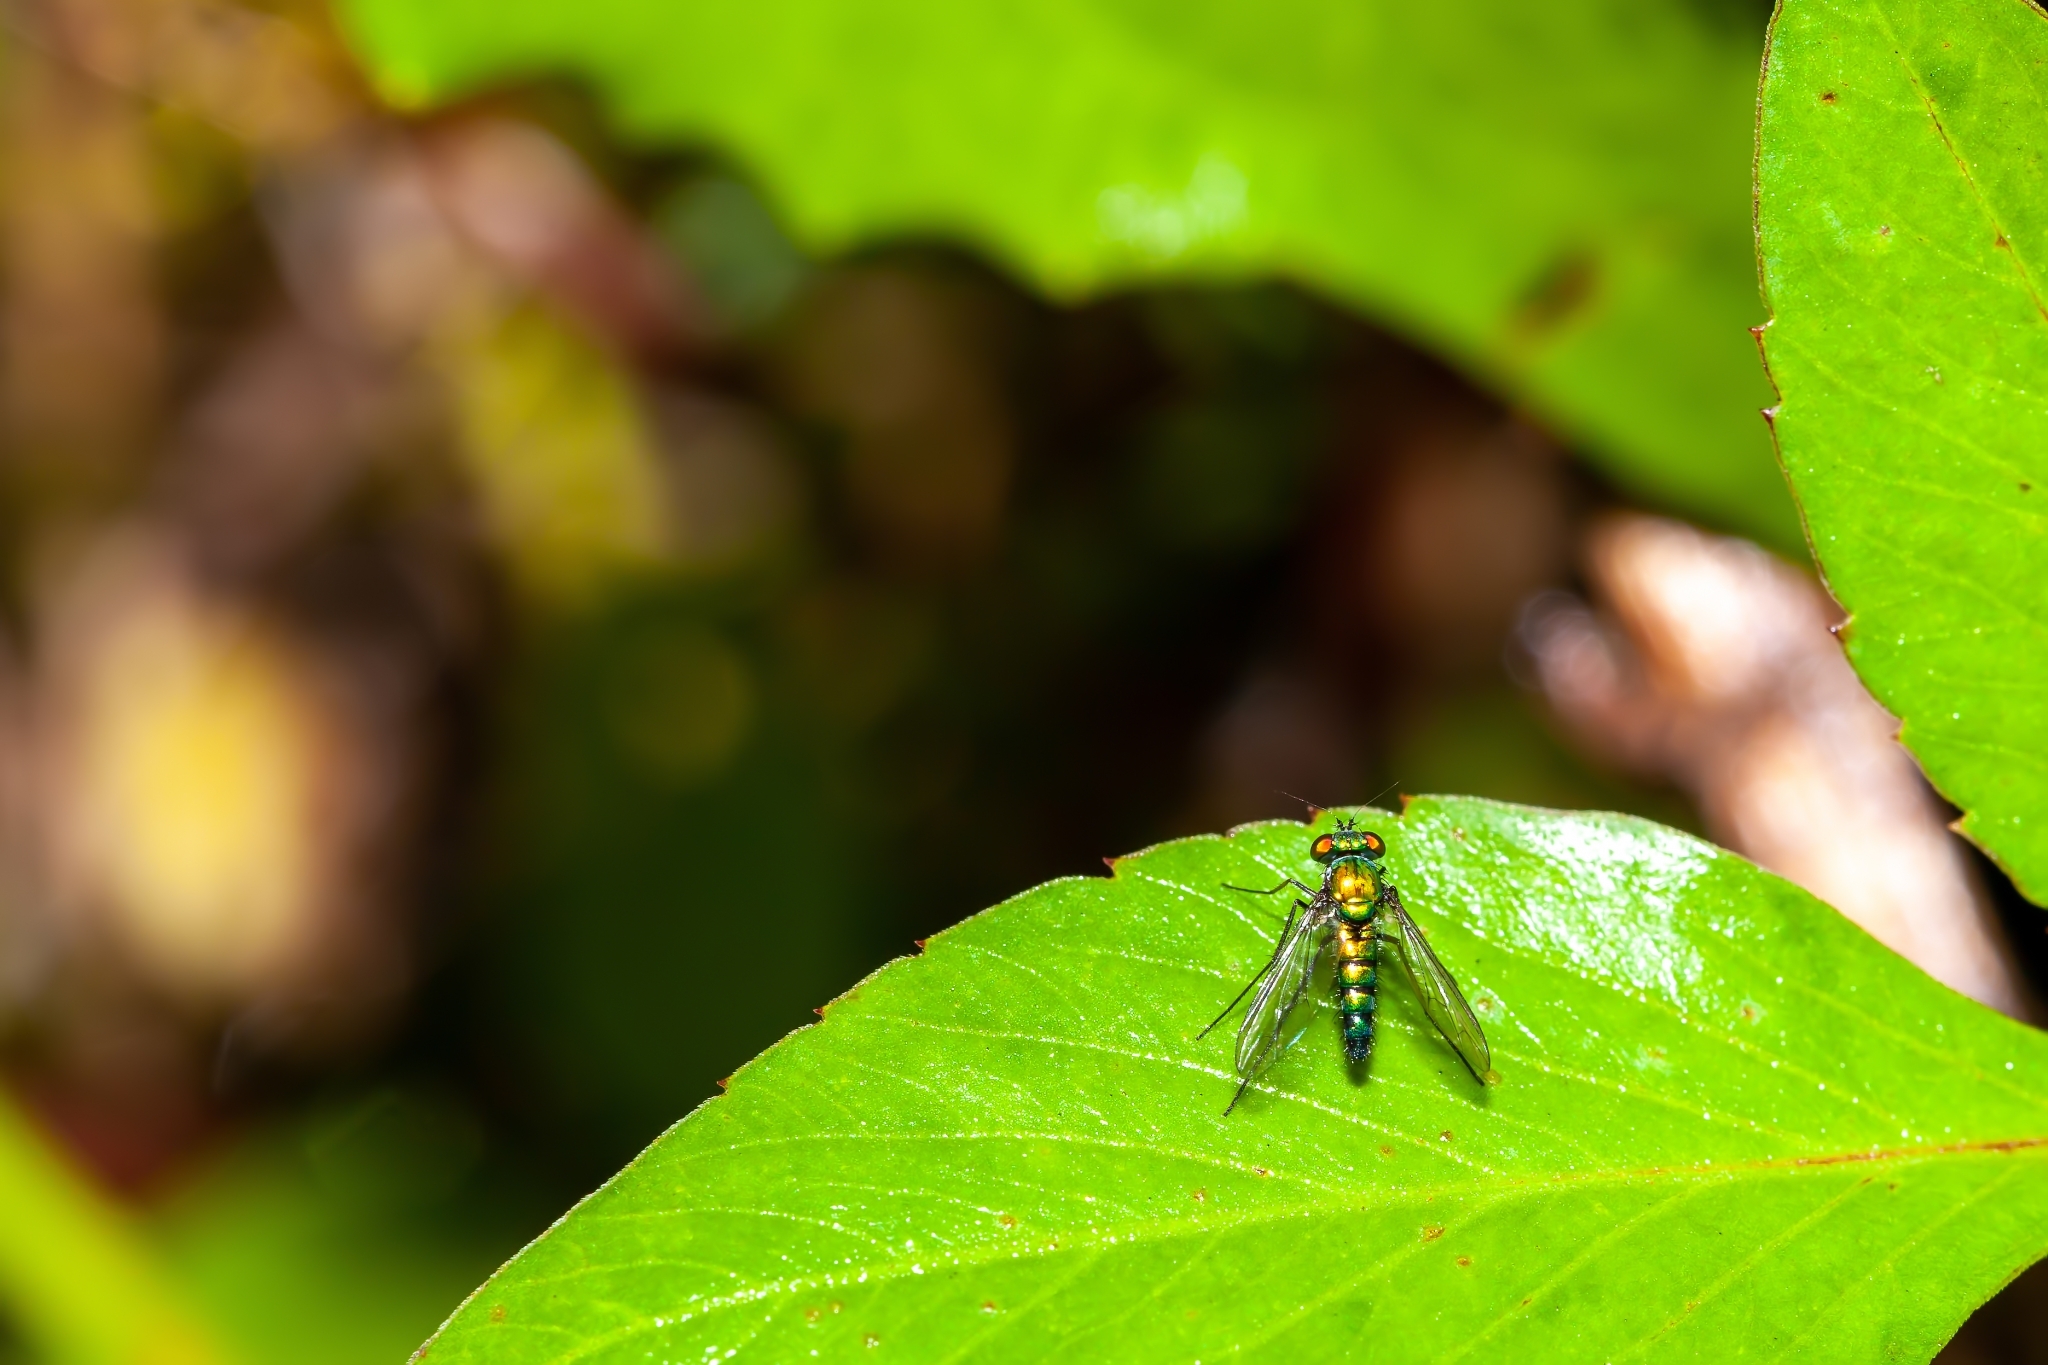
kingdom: Animalia
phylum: Arthropoda
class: Insecta
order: Diptera
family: Dolichopodidae
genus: Condylostylus
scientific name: Condylostylus longicornis
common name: Long-legged fly
